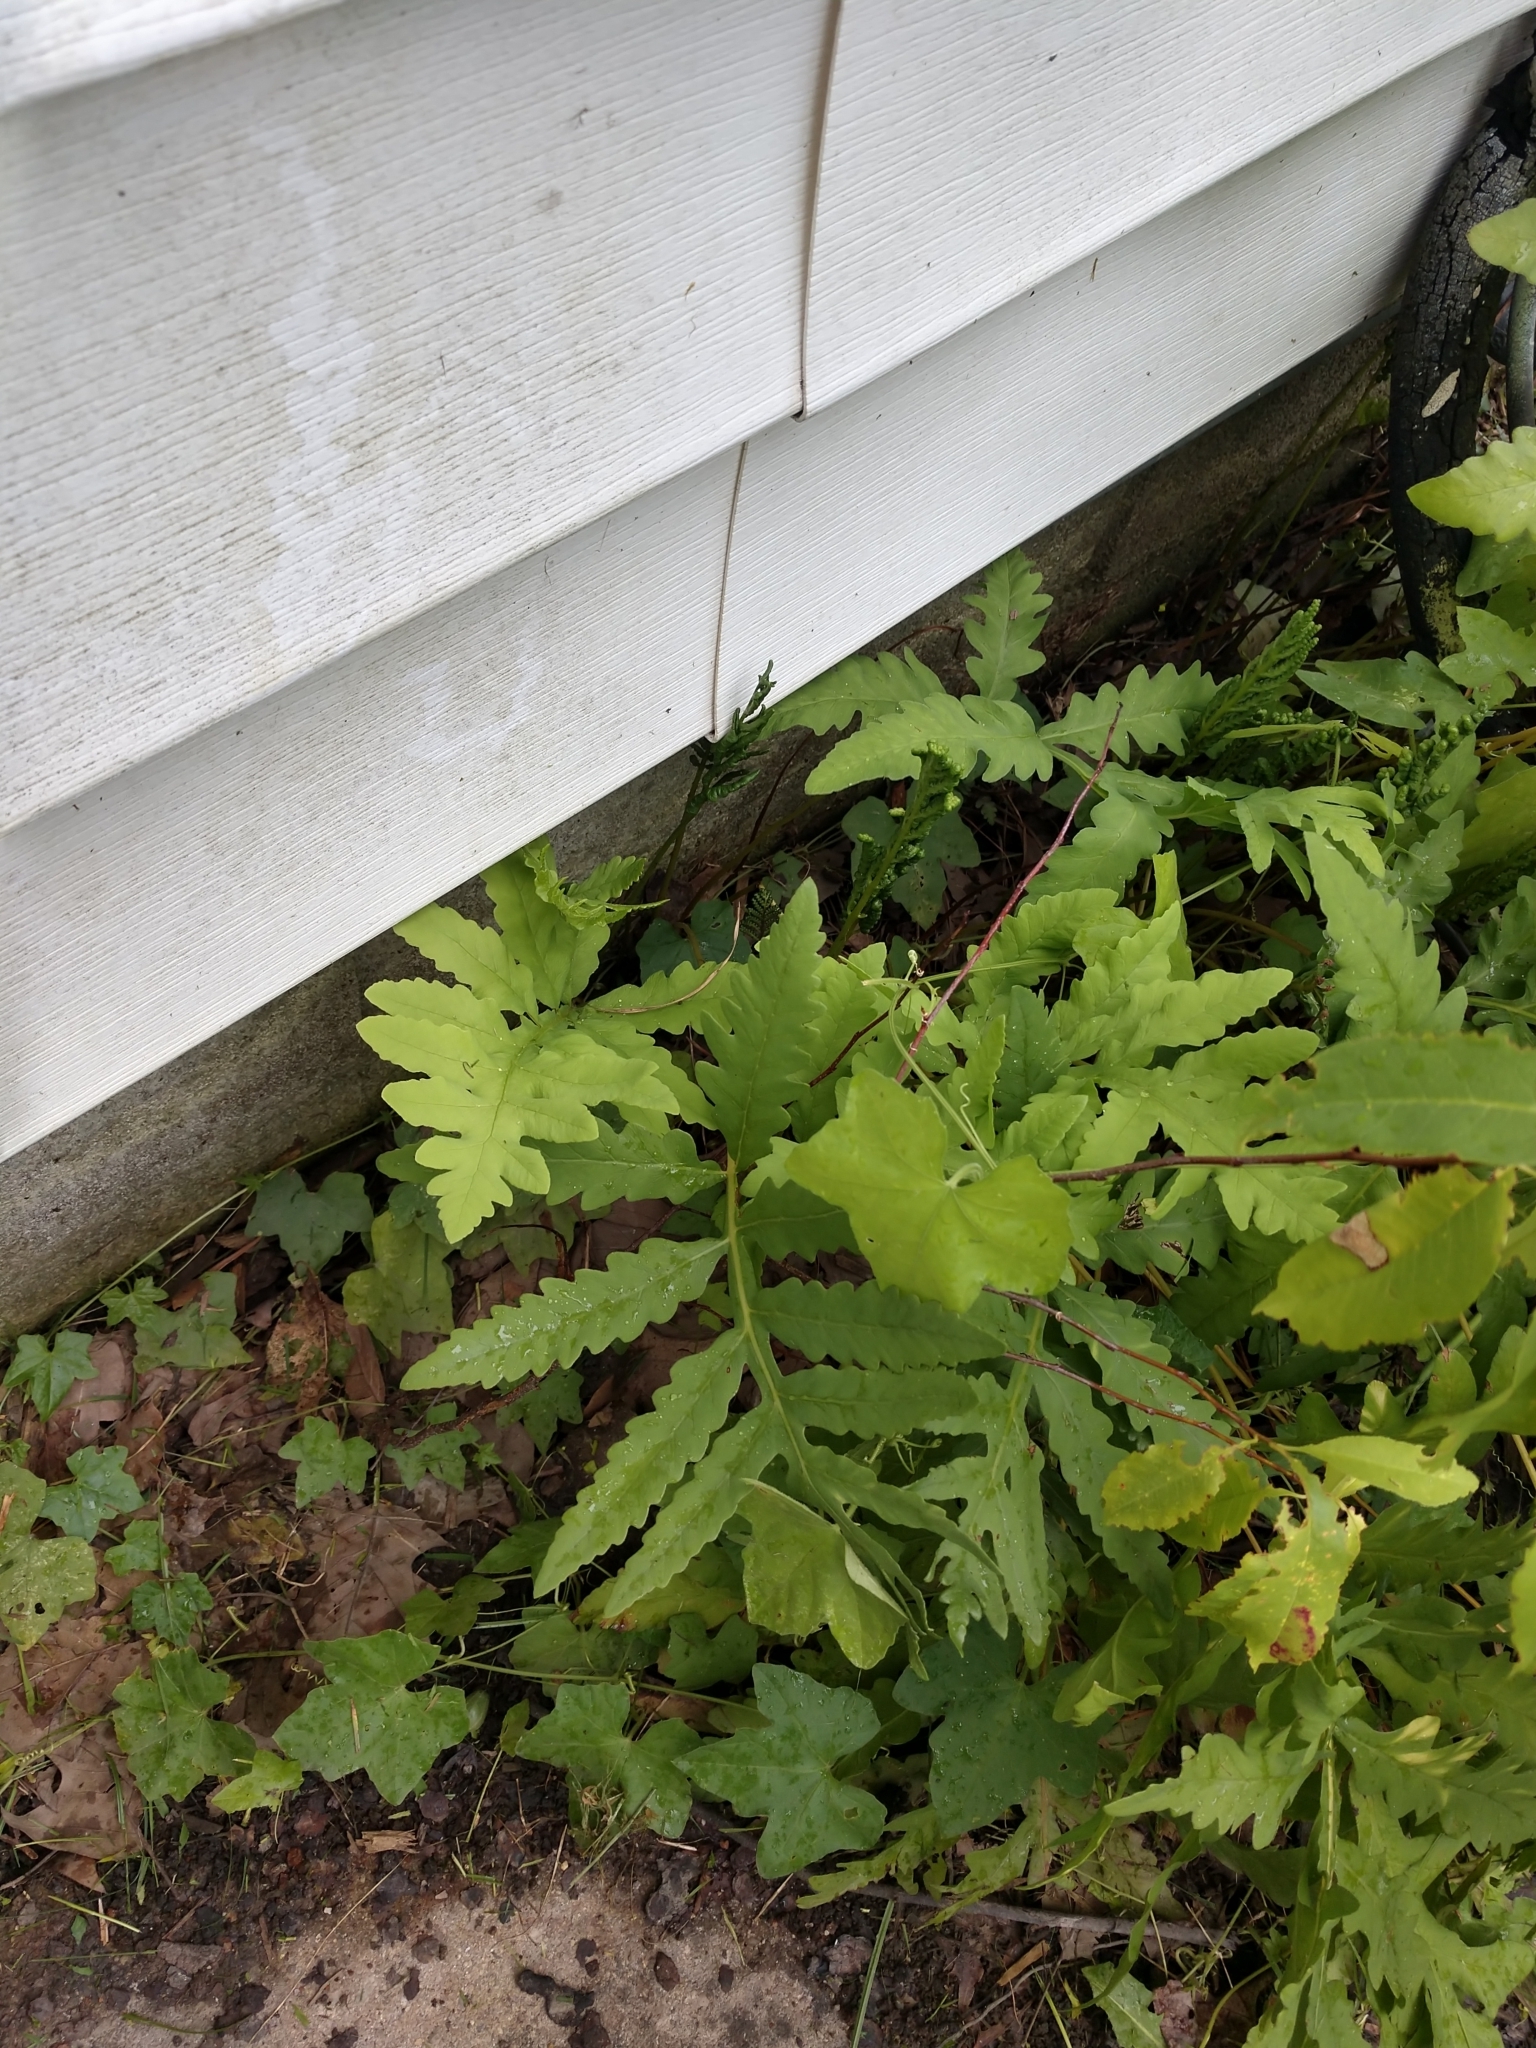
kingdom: Plantae
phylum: Tracheophyta
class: Polypodiopsida
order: Polypodiales
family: Onocleaceae
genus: Onoclea
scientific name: Onoclea sensibilis
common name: Sensitive fern
